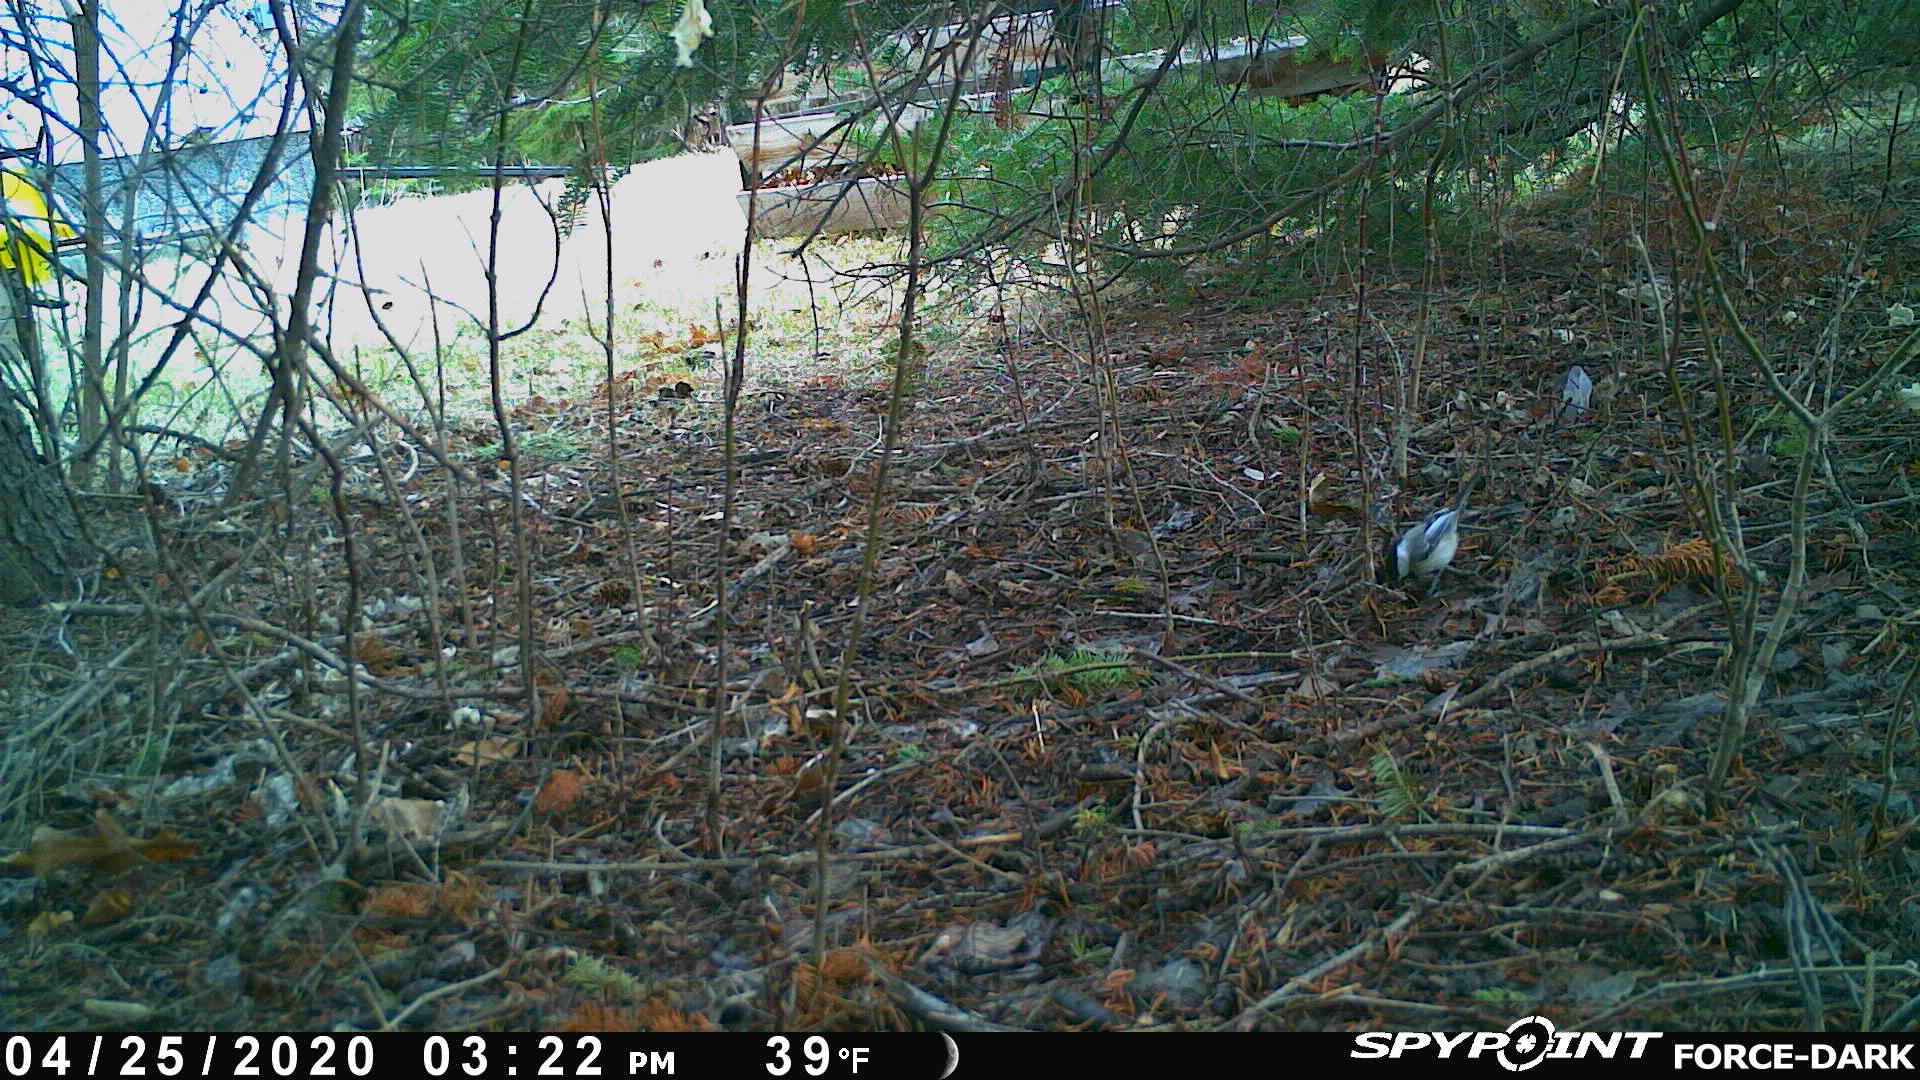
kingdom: Animalia
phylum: Chordata
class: Aves
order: Passeriformes
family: Paridae
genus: Poecile
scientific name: Poecile atricapillus
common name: Black-capped chickadee
